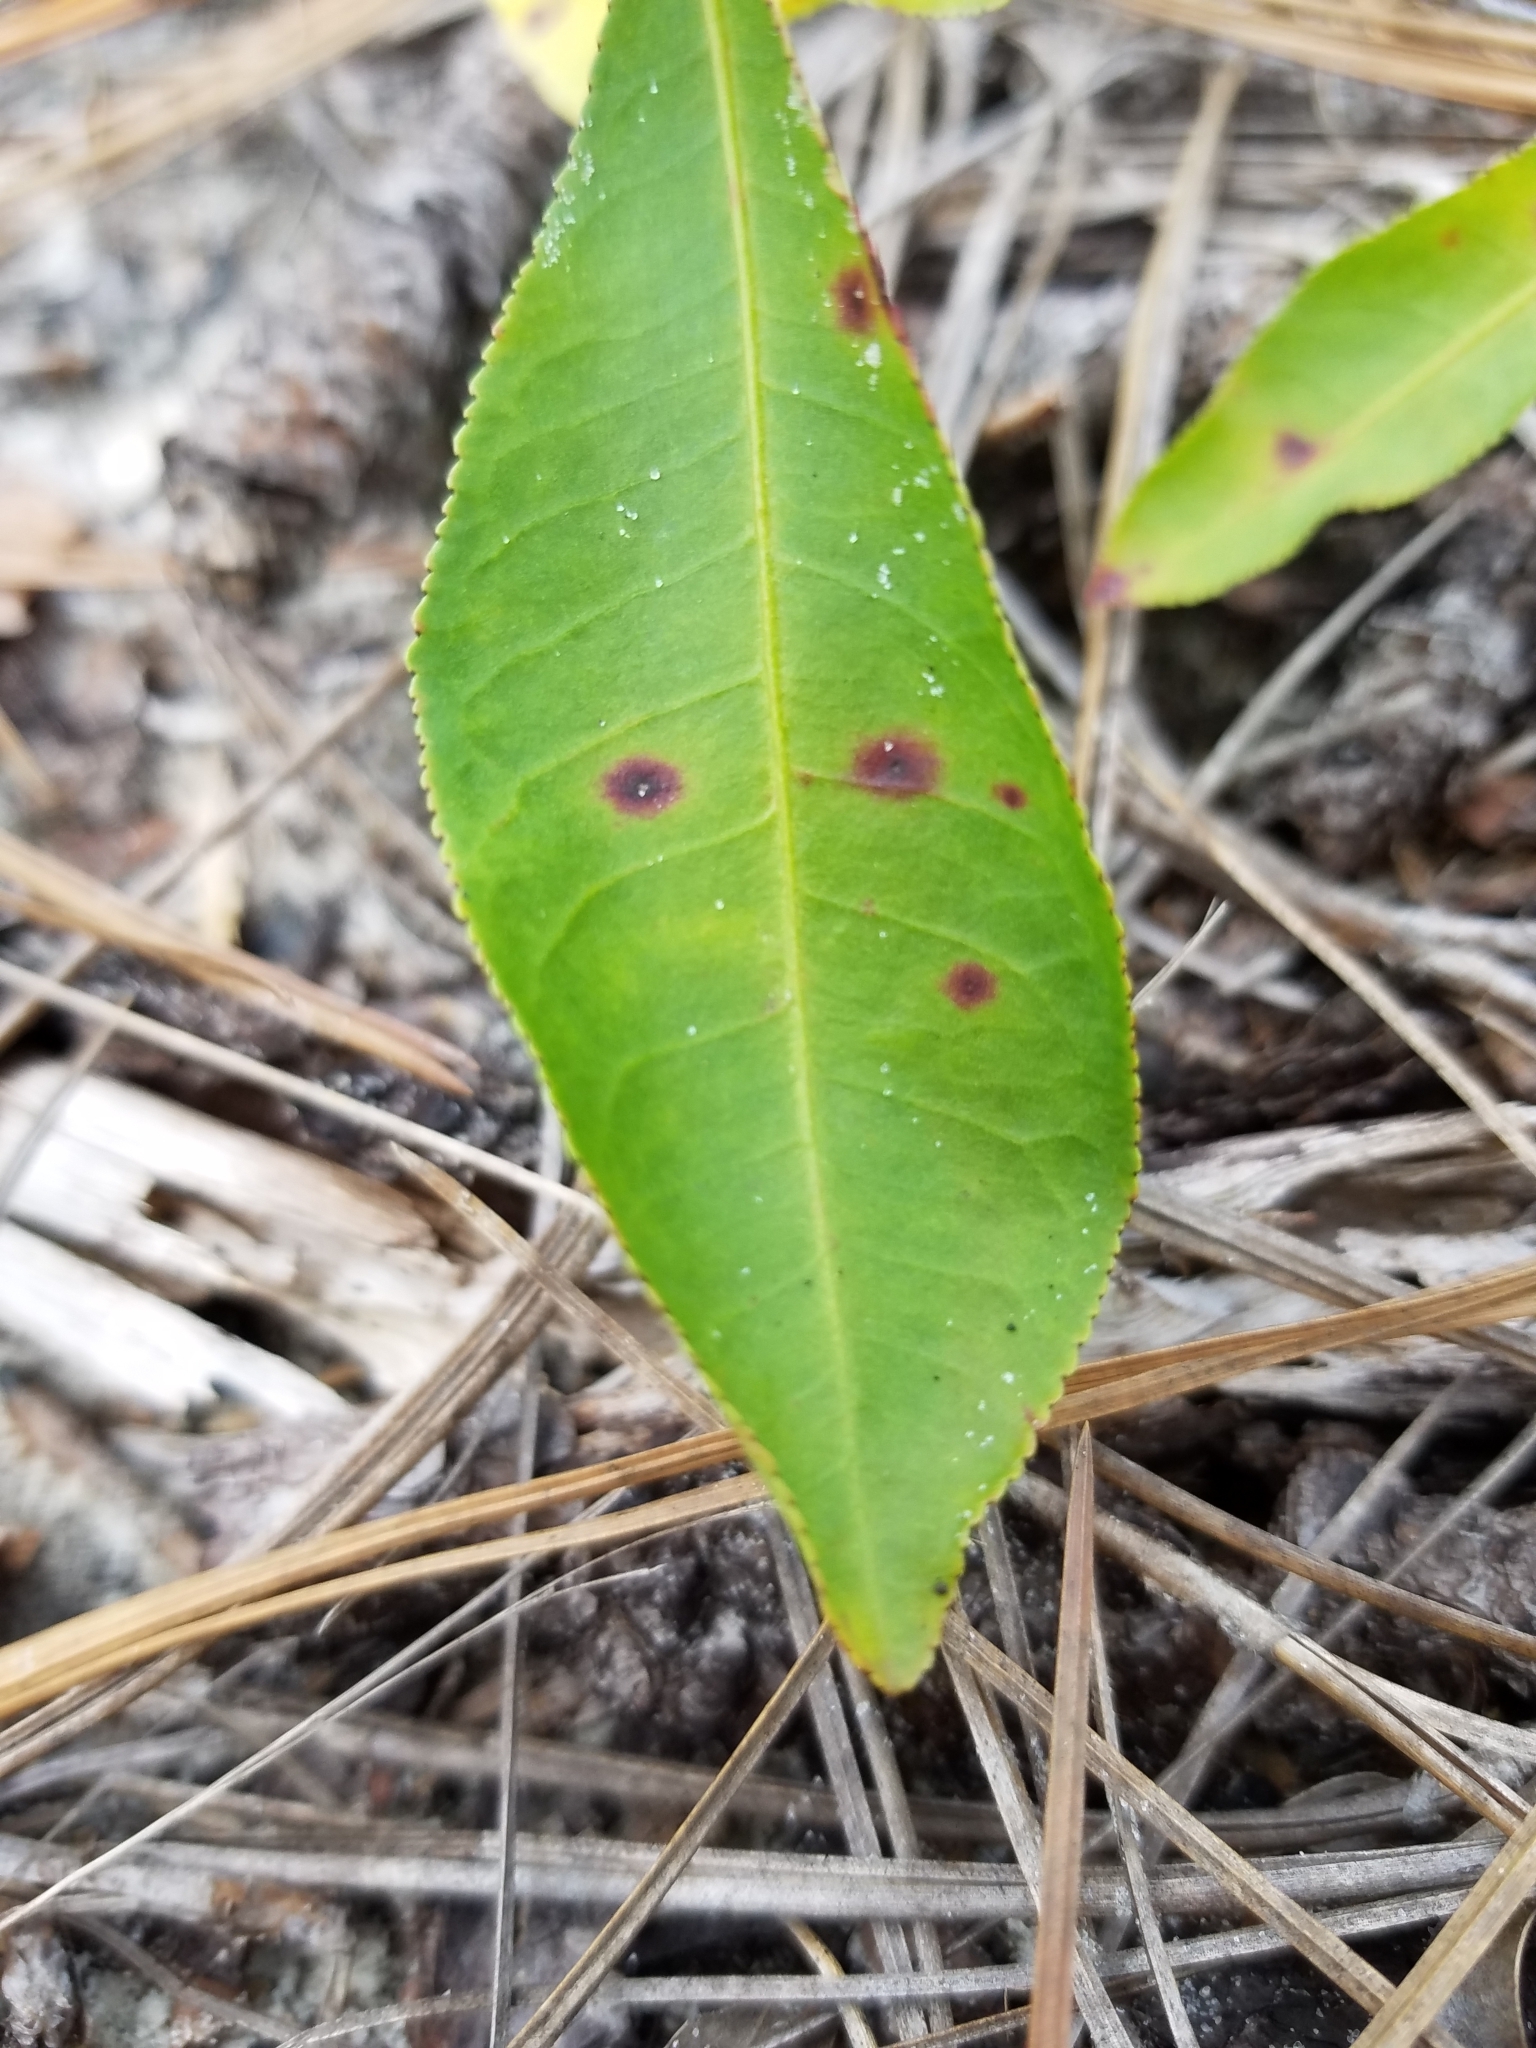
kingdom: Plantae
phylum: Tracheophyta
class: Magnoliopsida
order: Malpighiales
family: Euphorbiaceae
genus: Stillingia
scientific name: Stillingia sylvatica
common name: Queen's-delight
